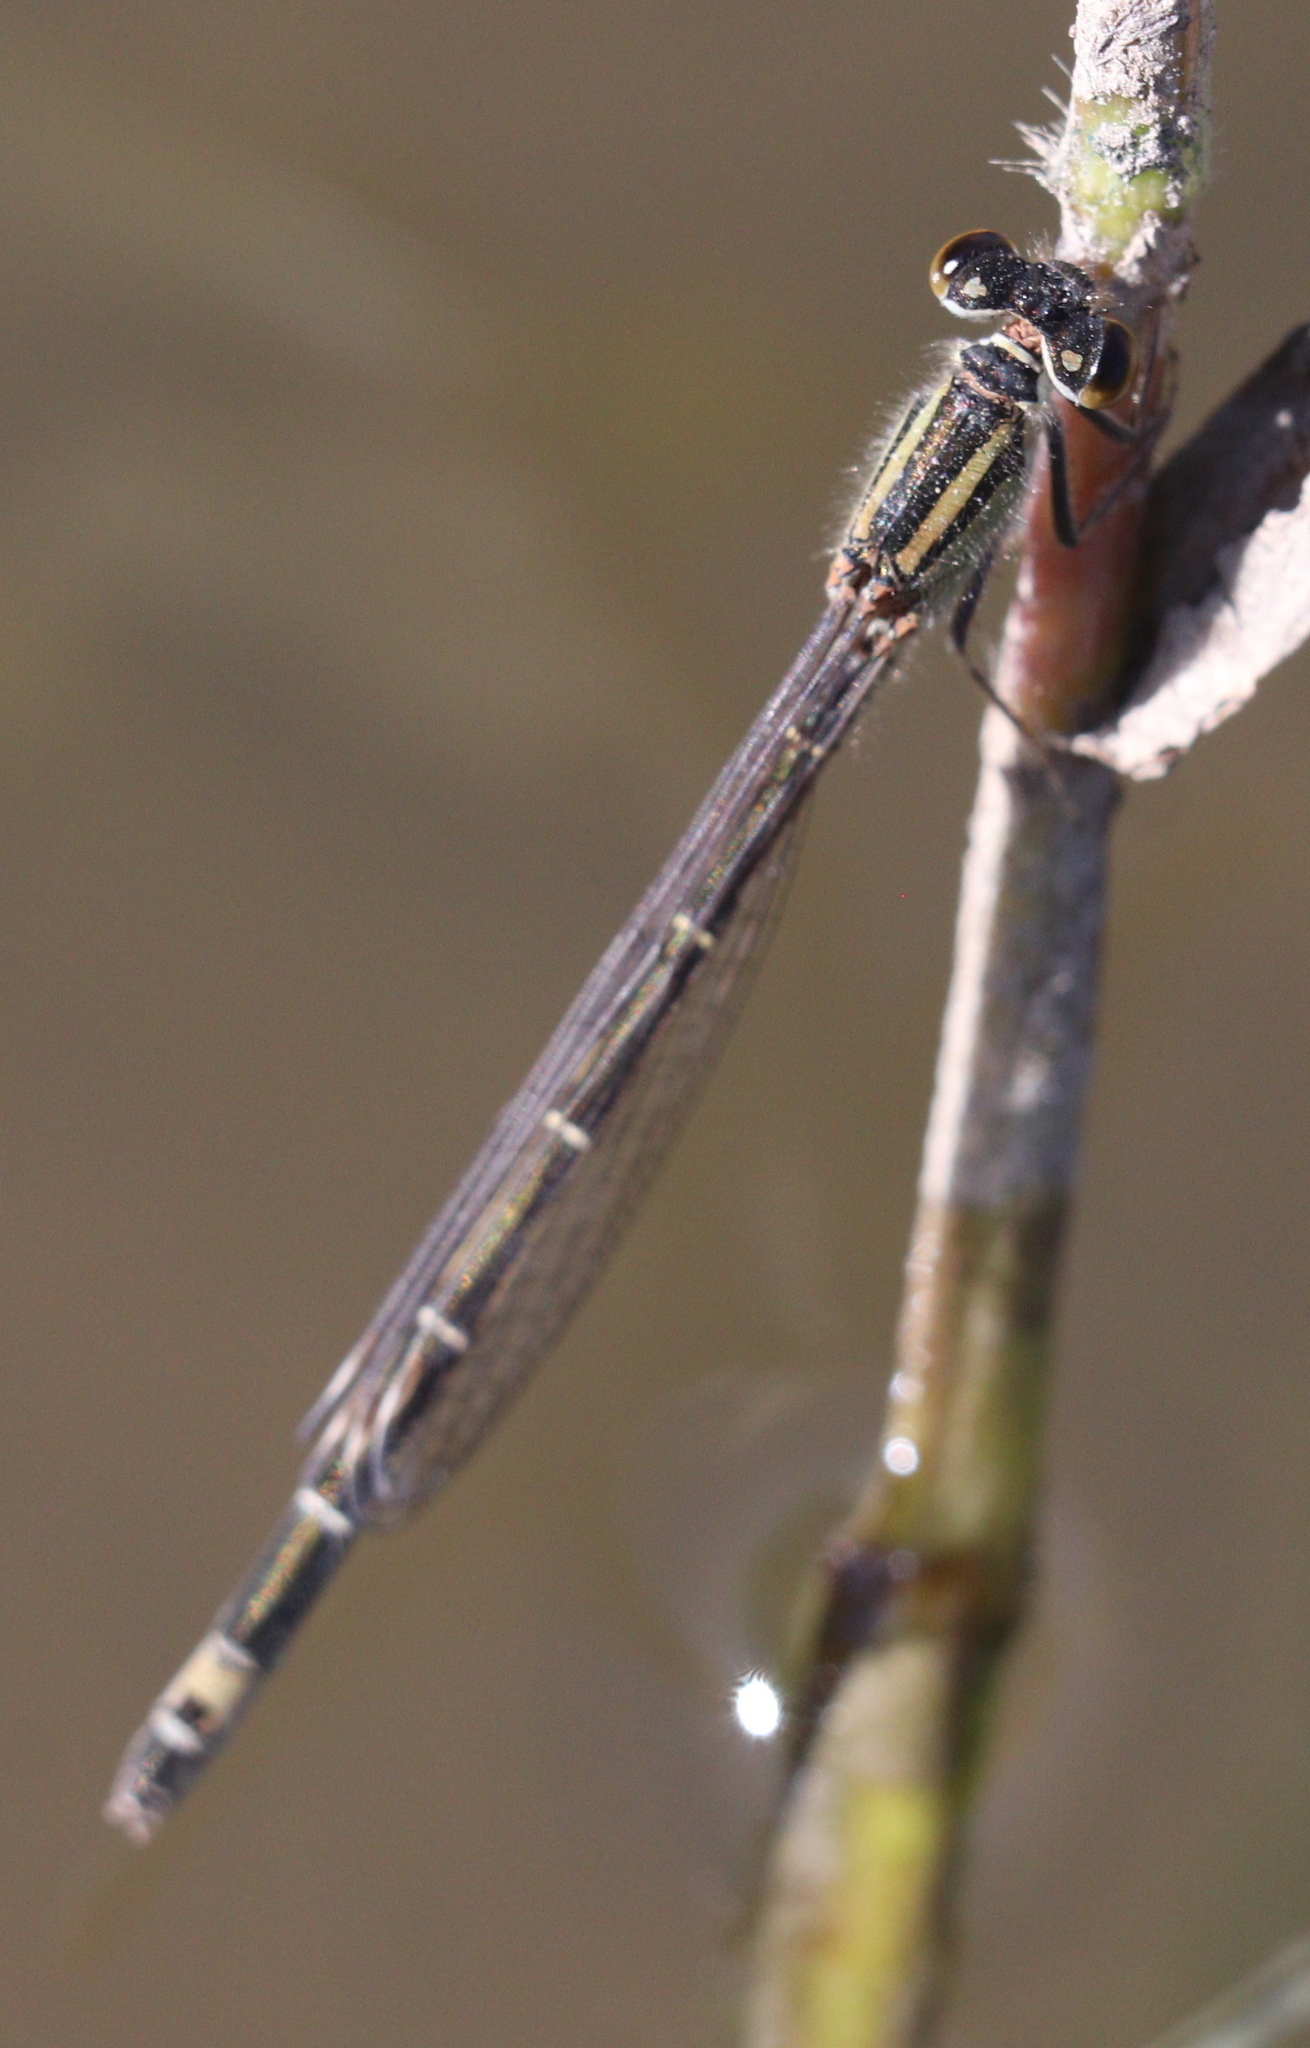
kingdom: Animalia
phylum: Arthropoda
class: Insecta
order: Odonata
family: Coenagrionidae
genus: Ischnura
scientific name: Ischnura graellsii
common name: Iberian bluetail
